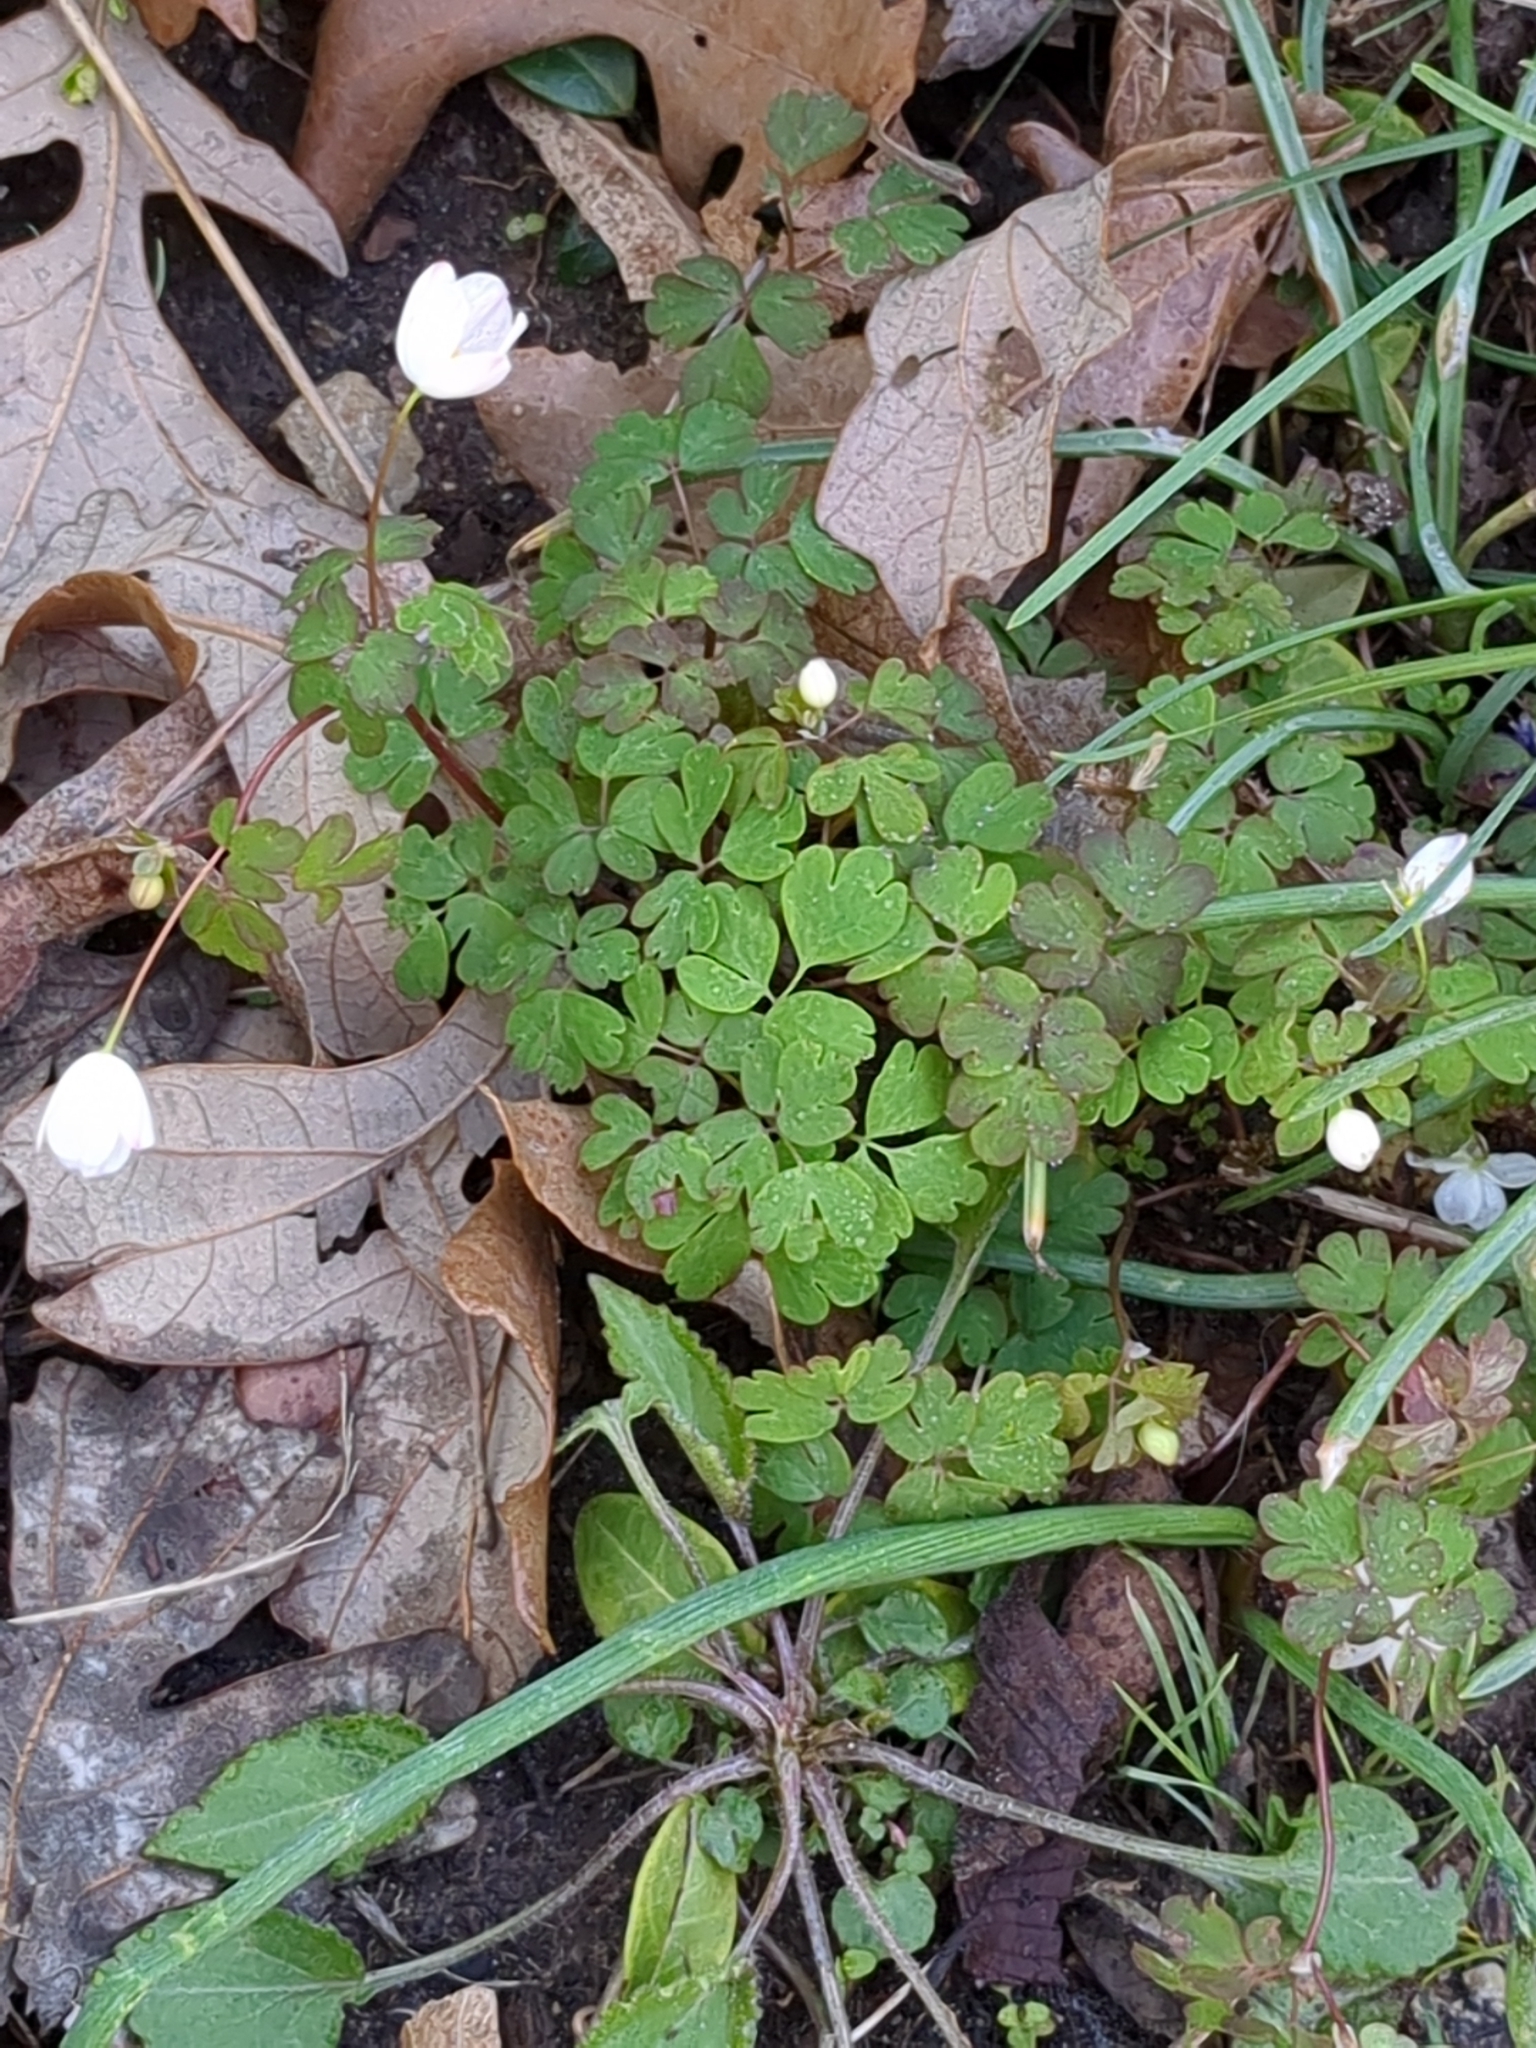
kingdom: Plantae
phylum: Tracheophyta
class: Magnoliopsida
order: Ranunculales
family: Ranunculaceae
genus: Enemion
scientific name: Enemion biternatum
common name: Eastern false rue-anemone
